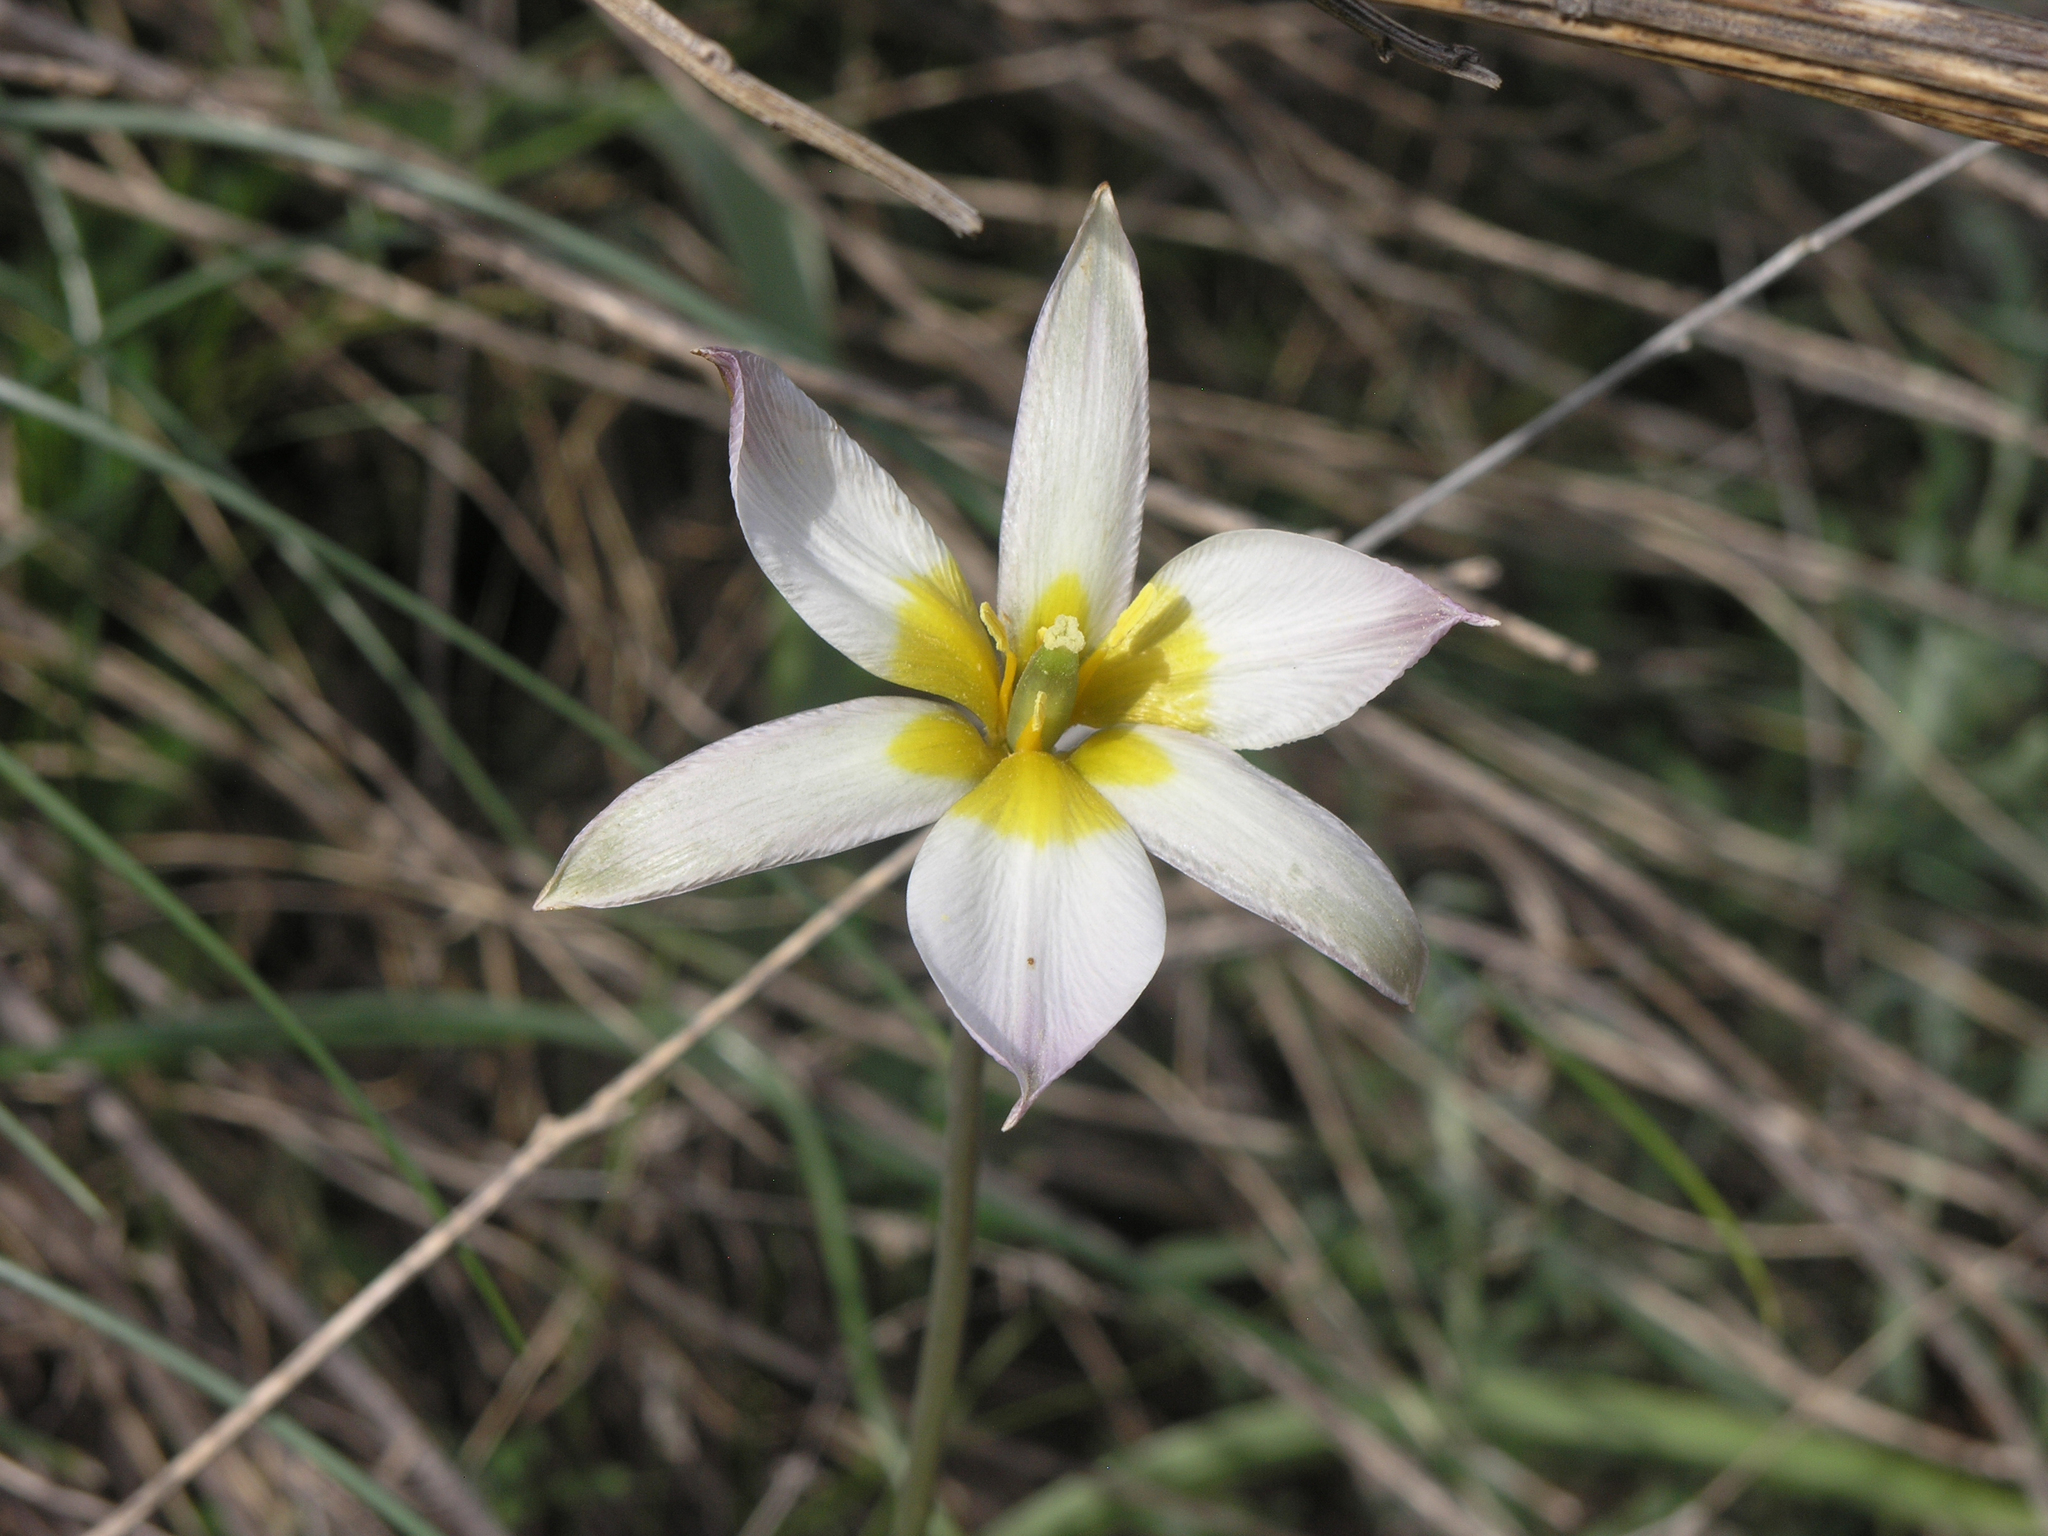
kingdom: Plantae
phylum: Tracheophyta
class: Liliopsida
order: Liliales
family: Liliaceae
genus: Tulipa
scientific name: Tulipa patens
